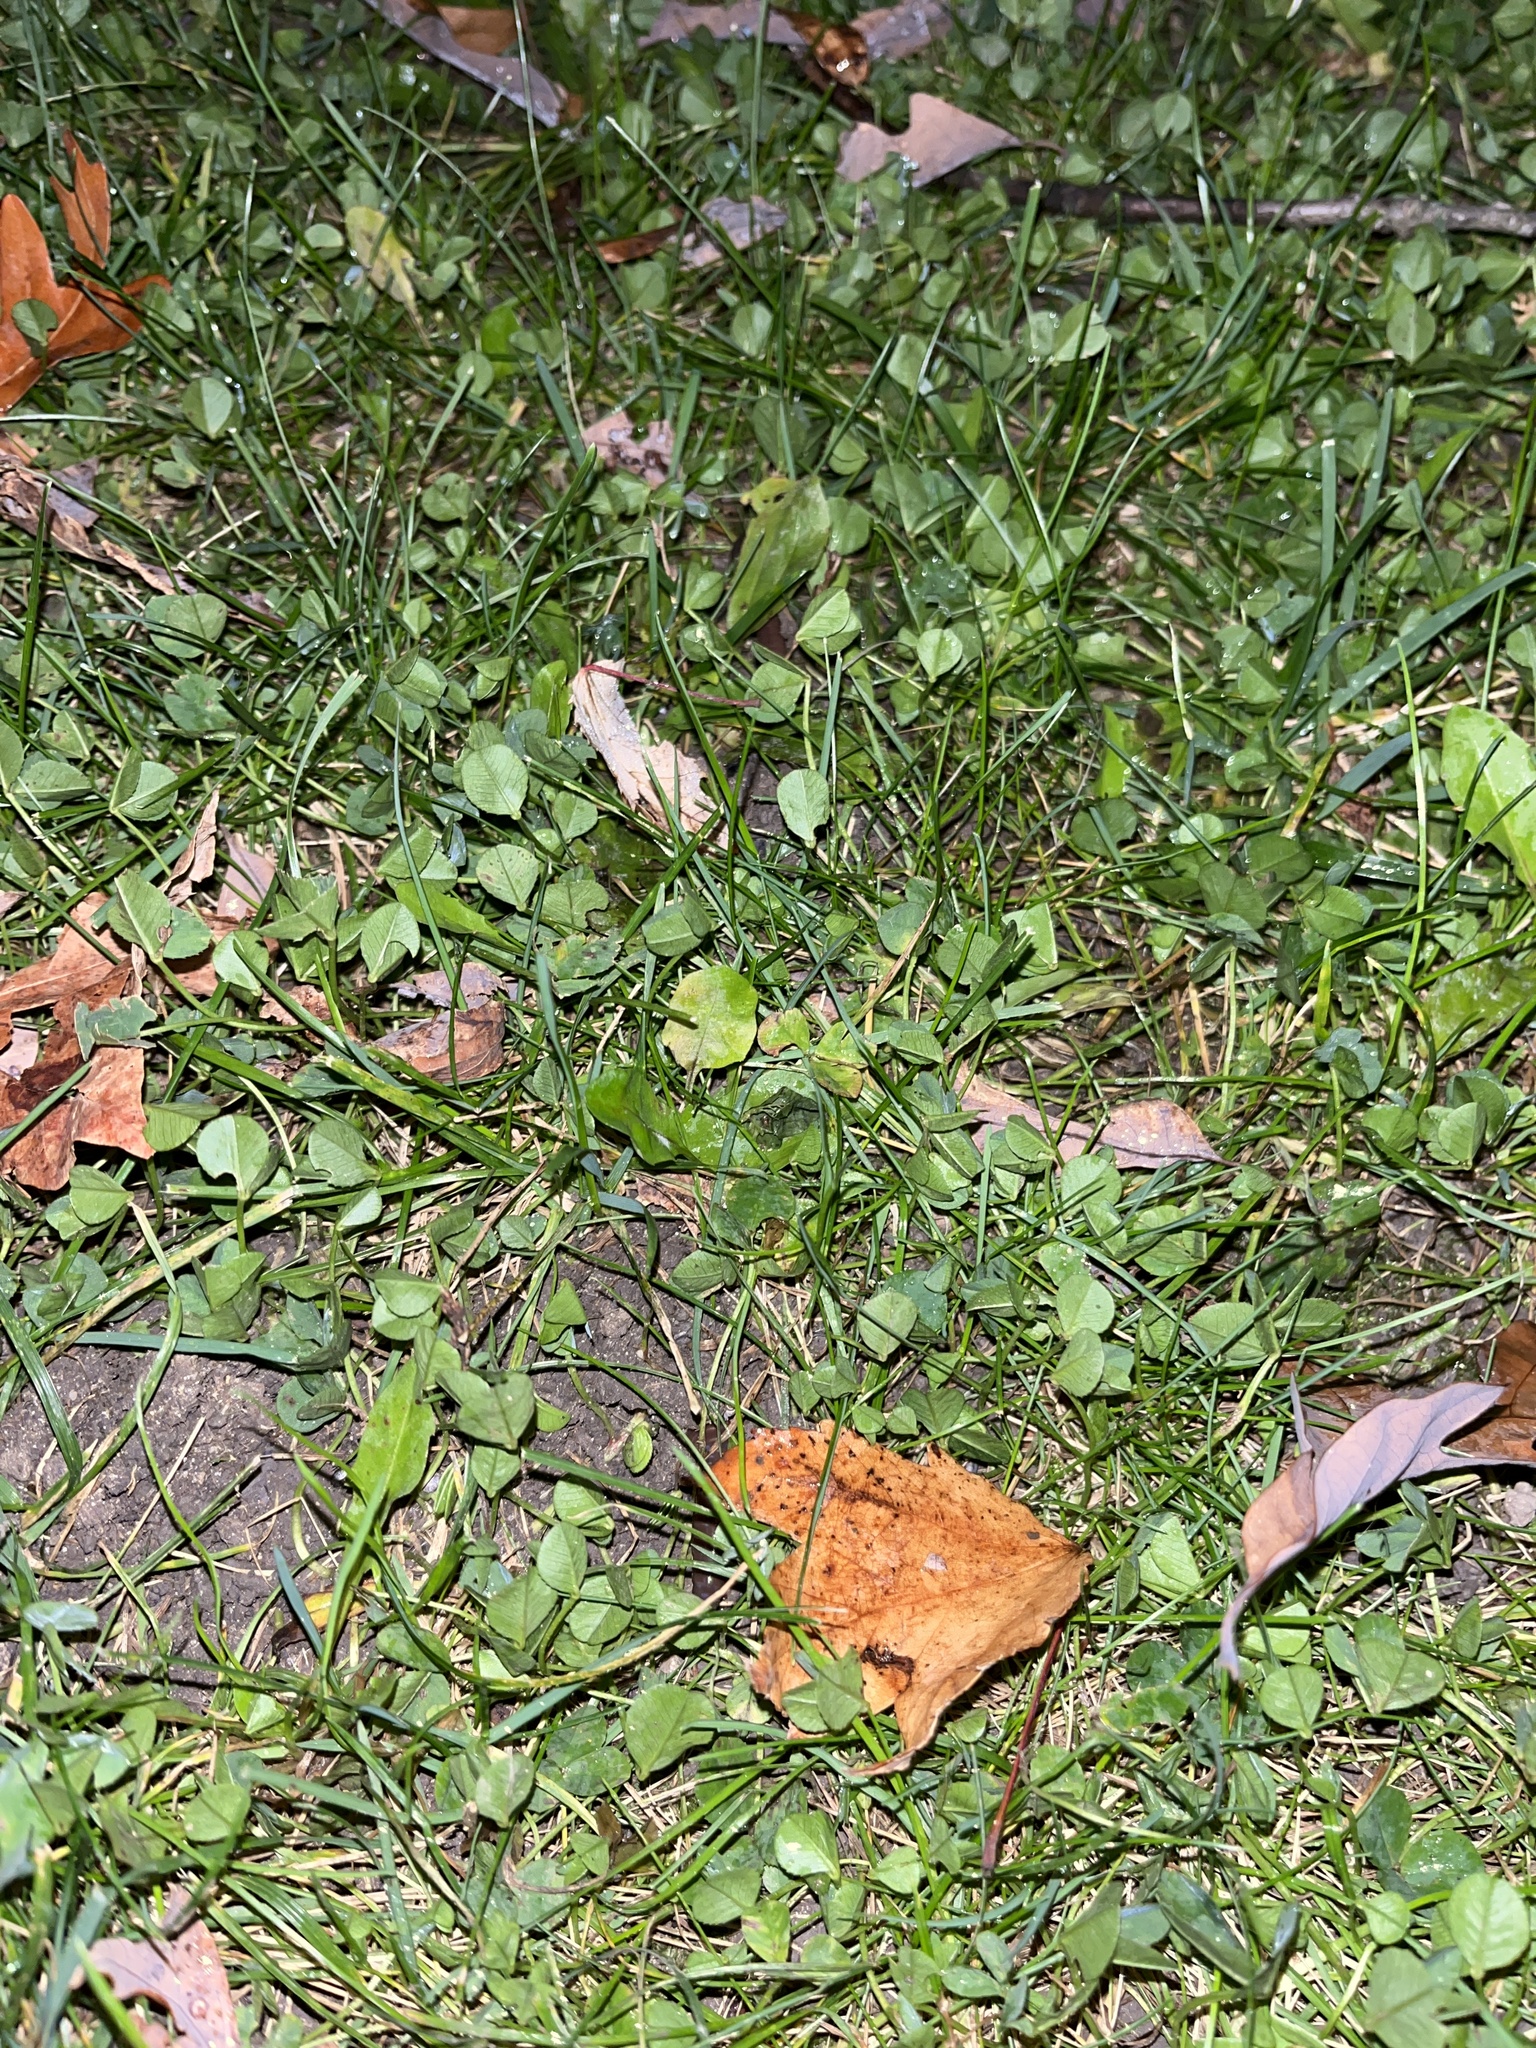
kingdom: Plantae
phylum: Tracheophyta
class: Magnoliopsida
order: Fabales
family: Fabaceae
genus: Trifolium
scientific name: Trifolium repens
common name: White clover
